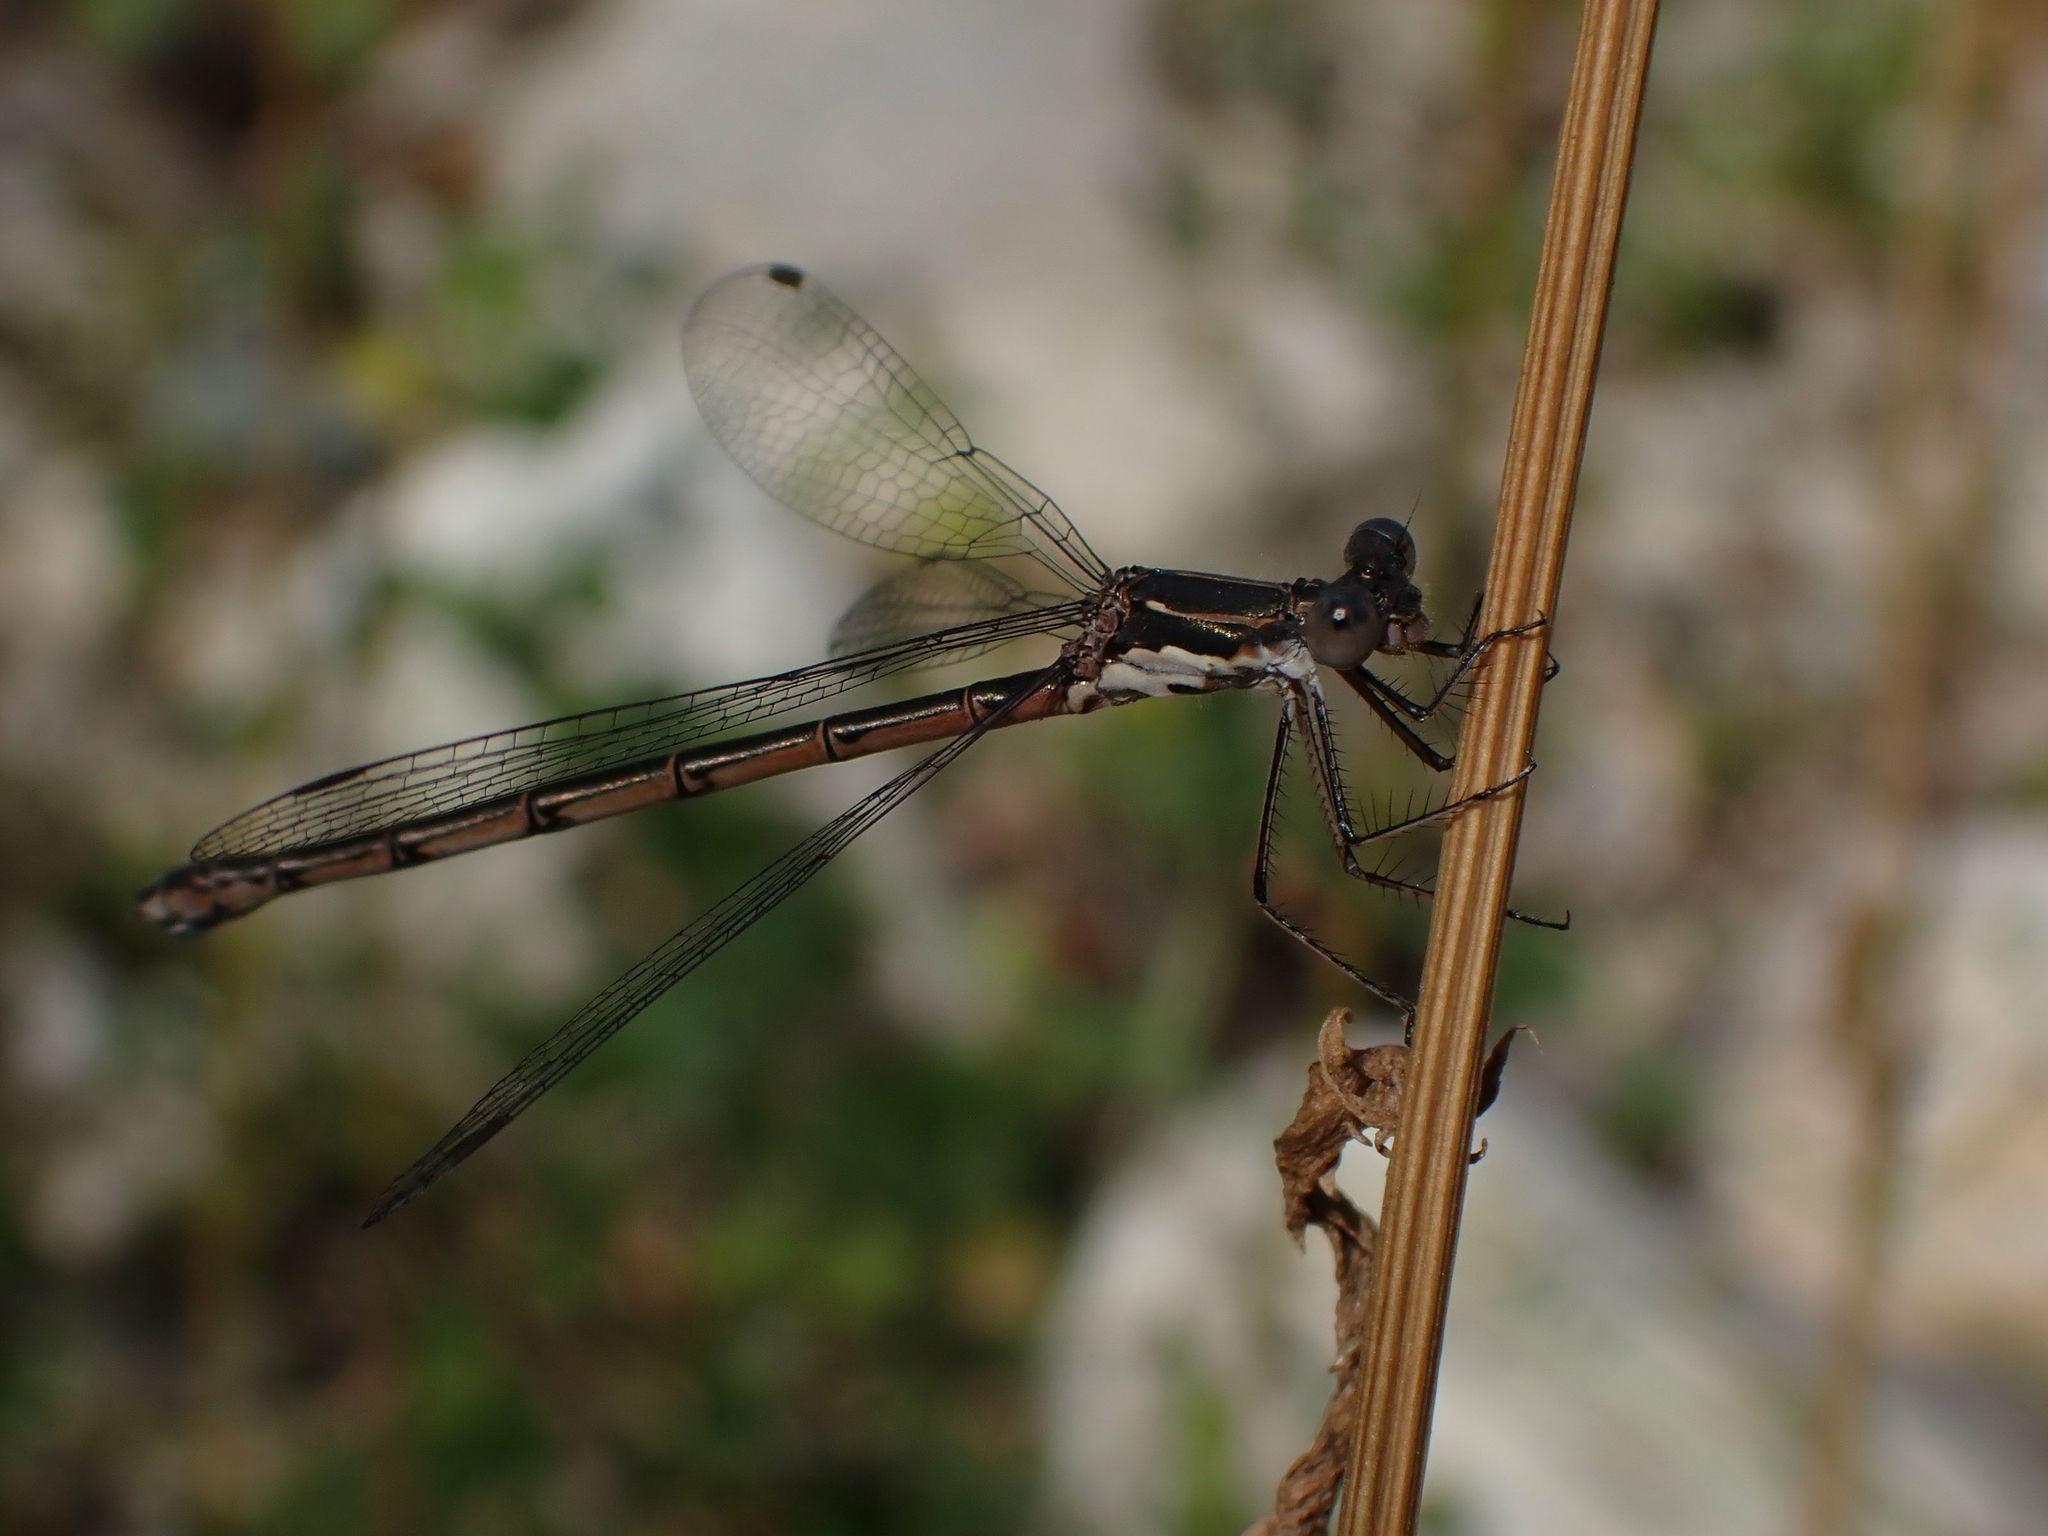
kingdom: Animalia
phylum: Arthropoda
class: Insecta
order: Odonata
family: Lestidae
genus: Lestes
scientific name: Lestes congener
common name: Spotted spreadwing
